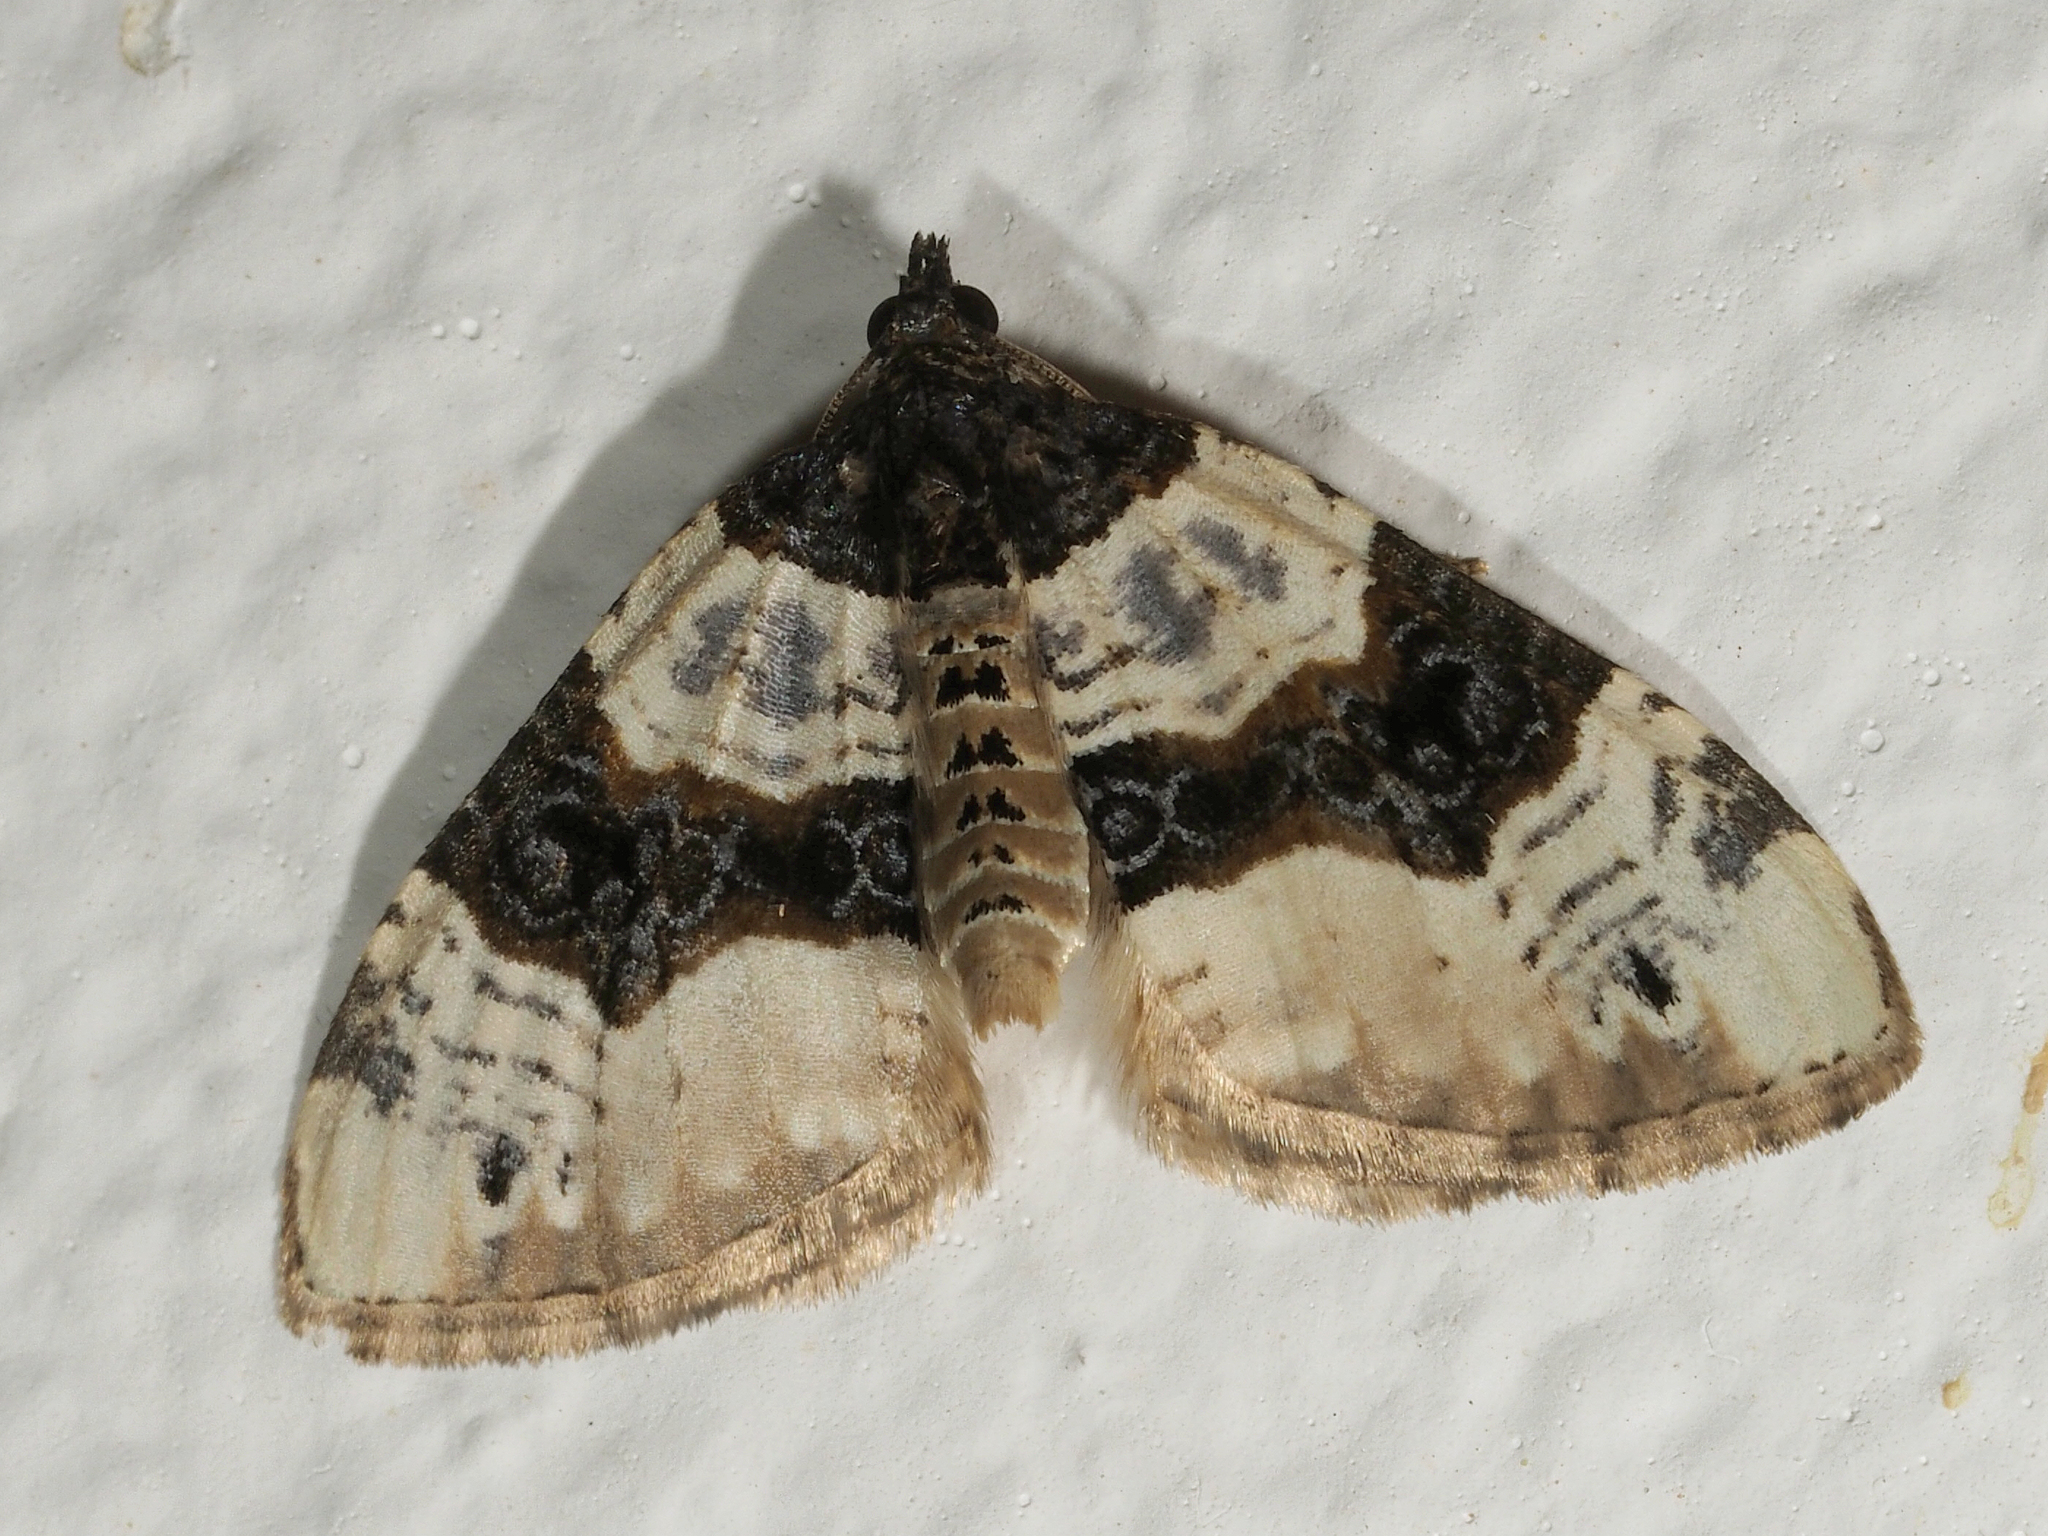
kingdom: Animalia
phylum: Arthropoda
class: Insecta
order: Lepidoptera
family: Geometridae
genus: Cosmorhoe
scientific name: Cosmorhoe ocellata
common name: Purple bar
